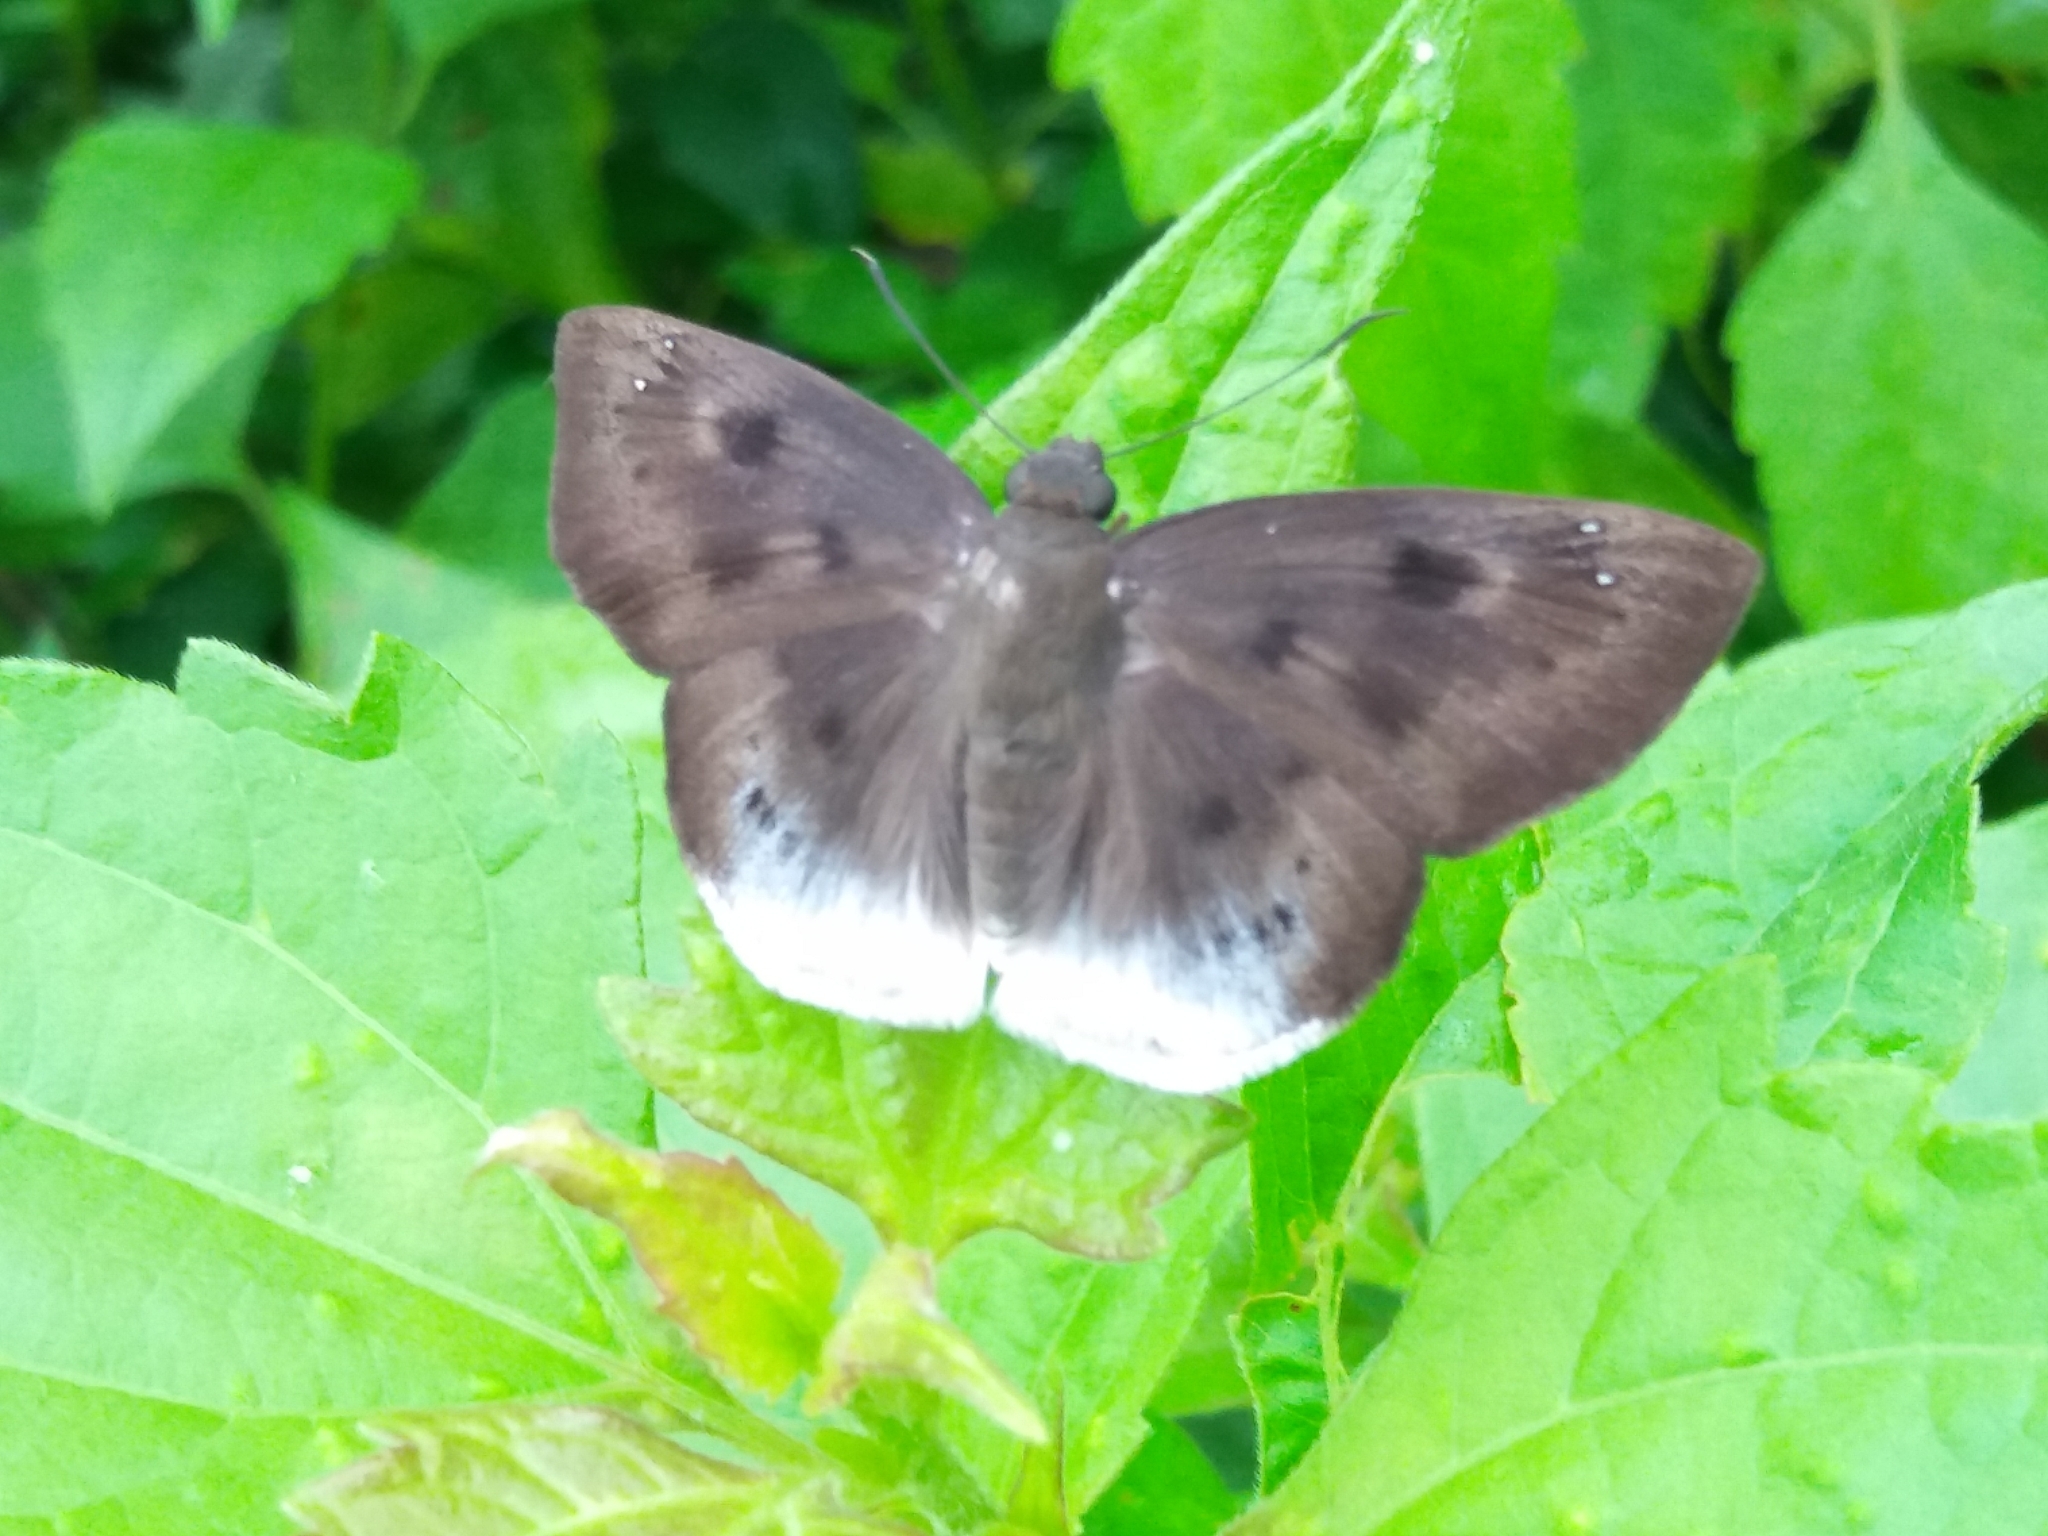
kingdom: Animalia
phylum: Arthropoda
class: Insecta
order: Lepidoptera
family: Hesperiidae
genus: Tagiades
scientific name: Tagiades gana
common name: Suffused snow flat
